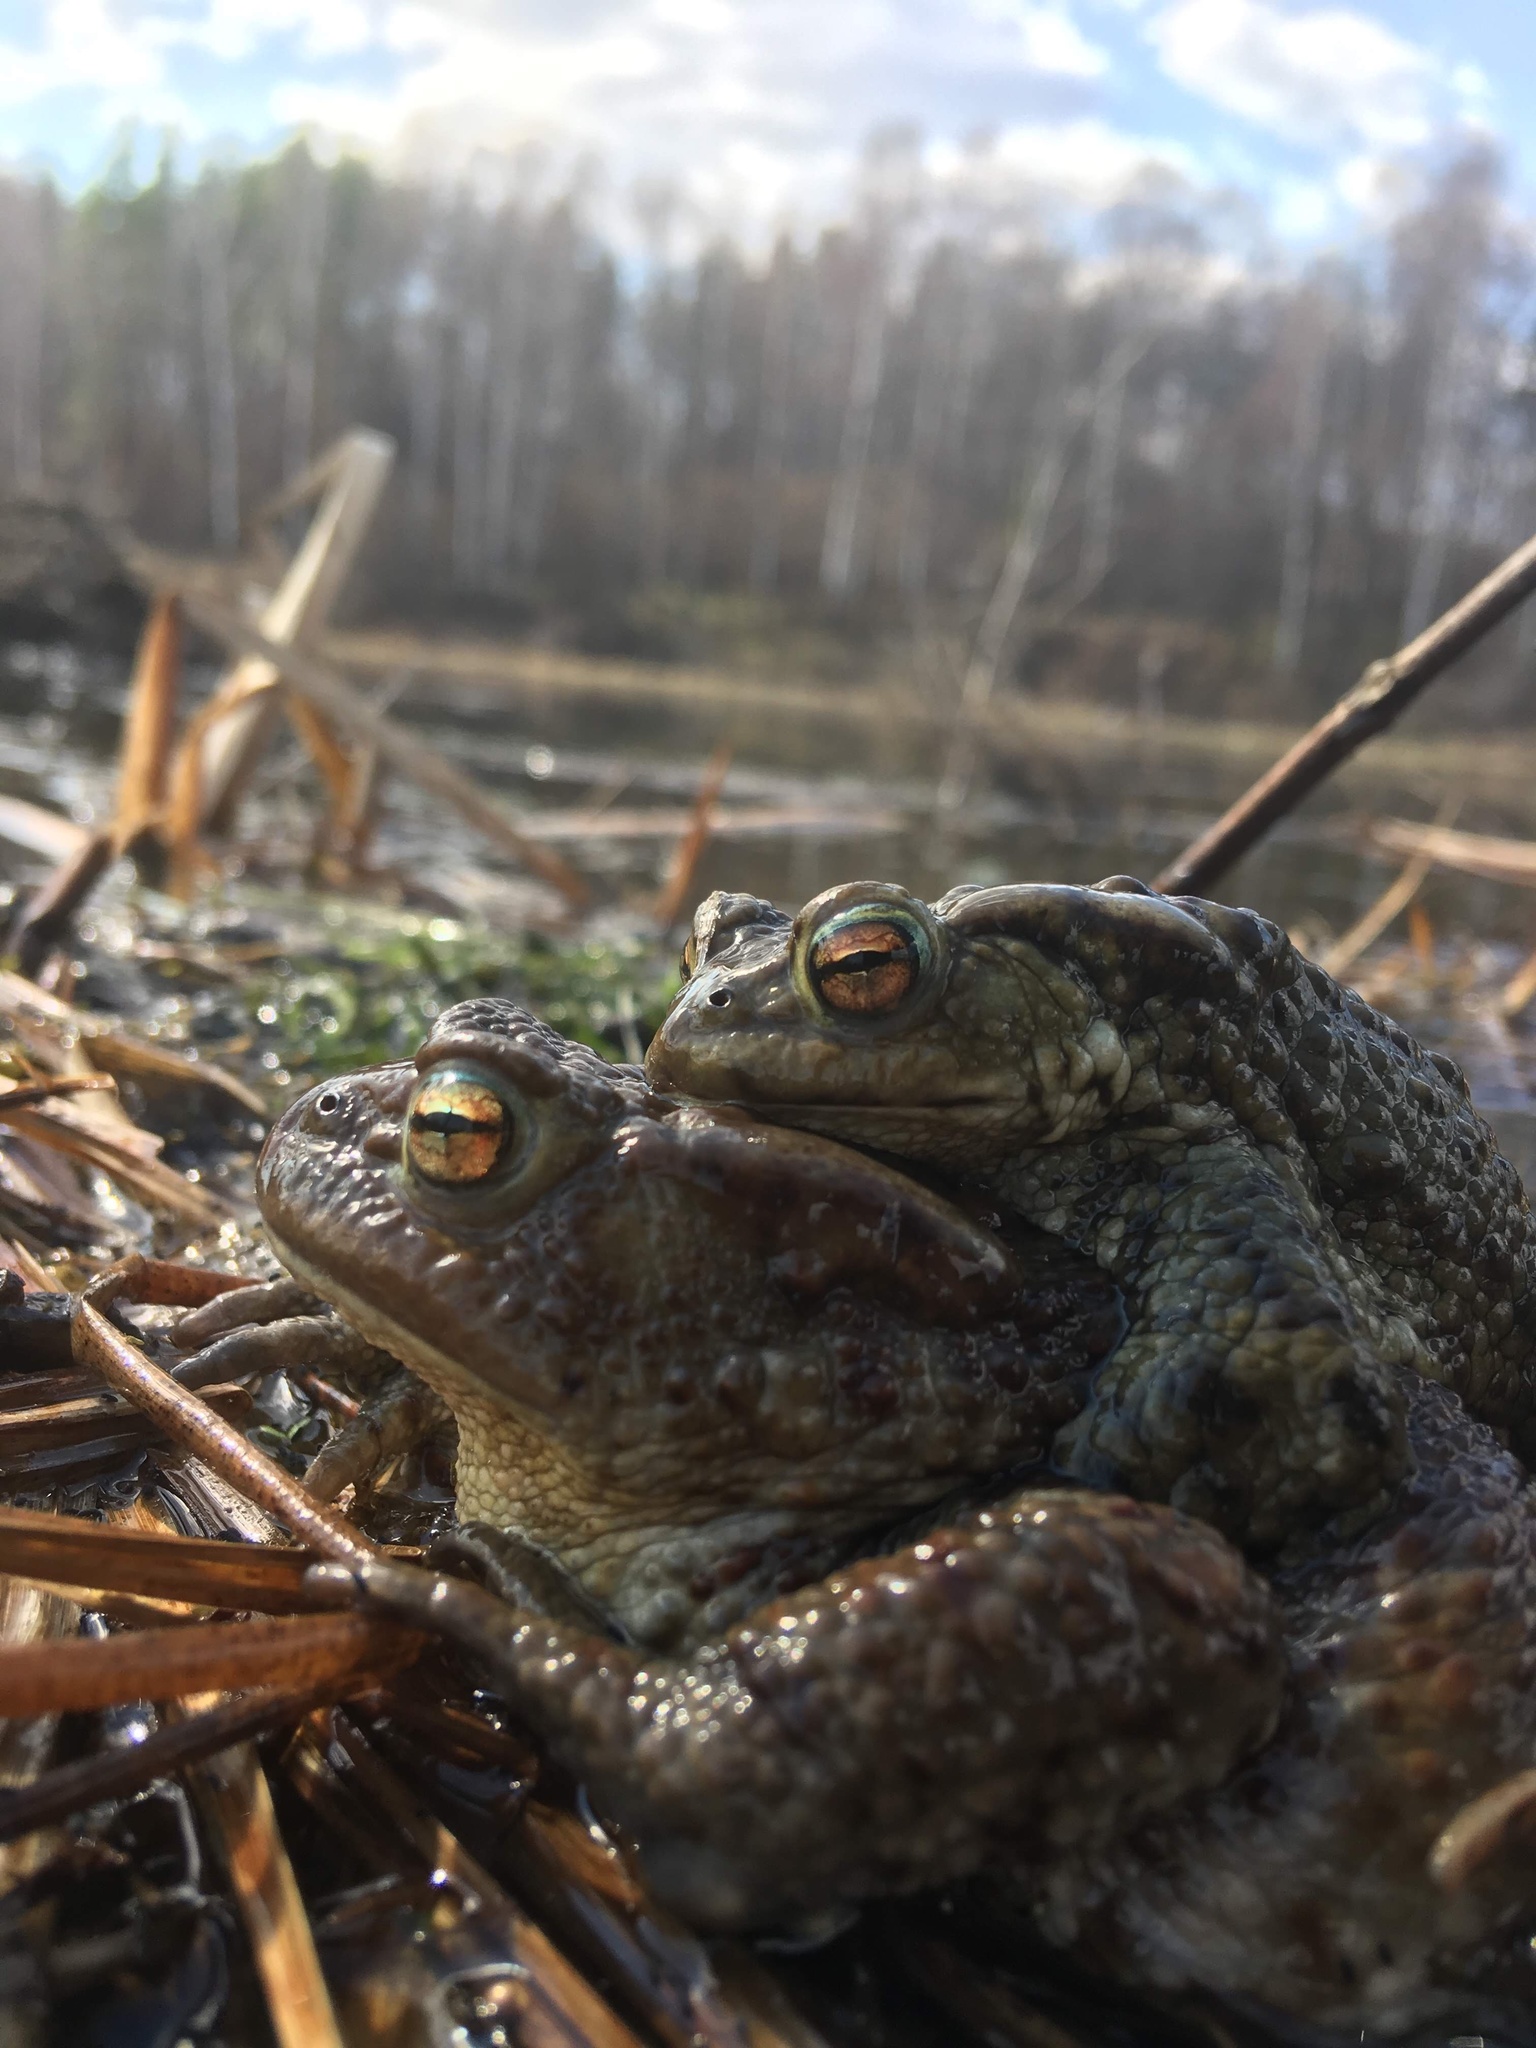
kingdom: Animalia
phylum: Chordata
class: Amphibia
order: Anura
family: Bufonidae
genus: Bufo
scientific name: Bufo bufo
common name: Common toad
